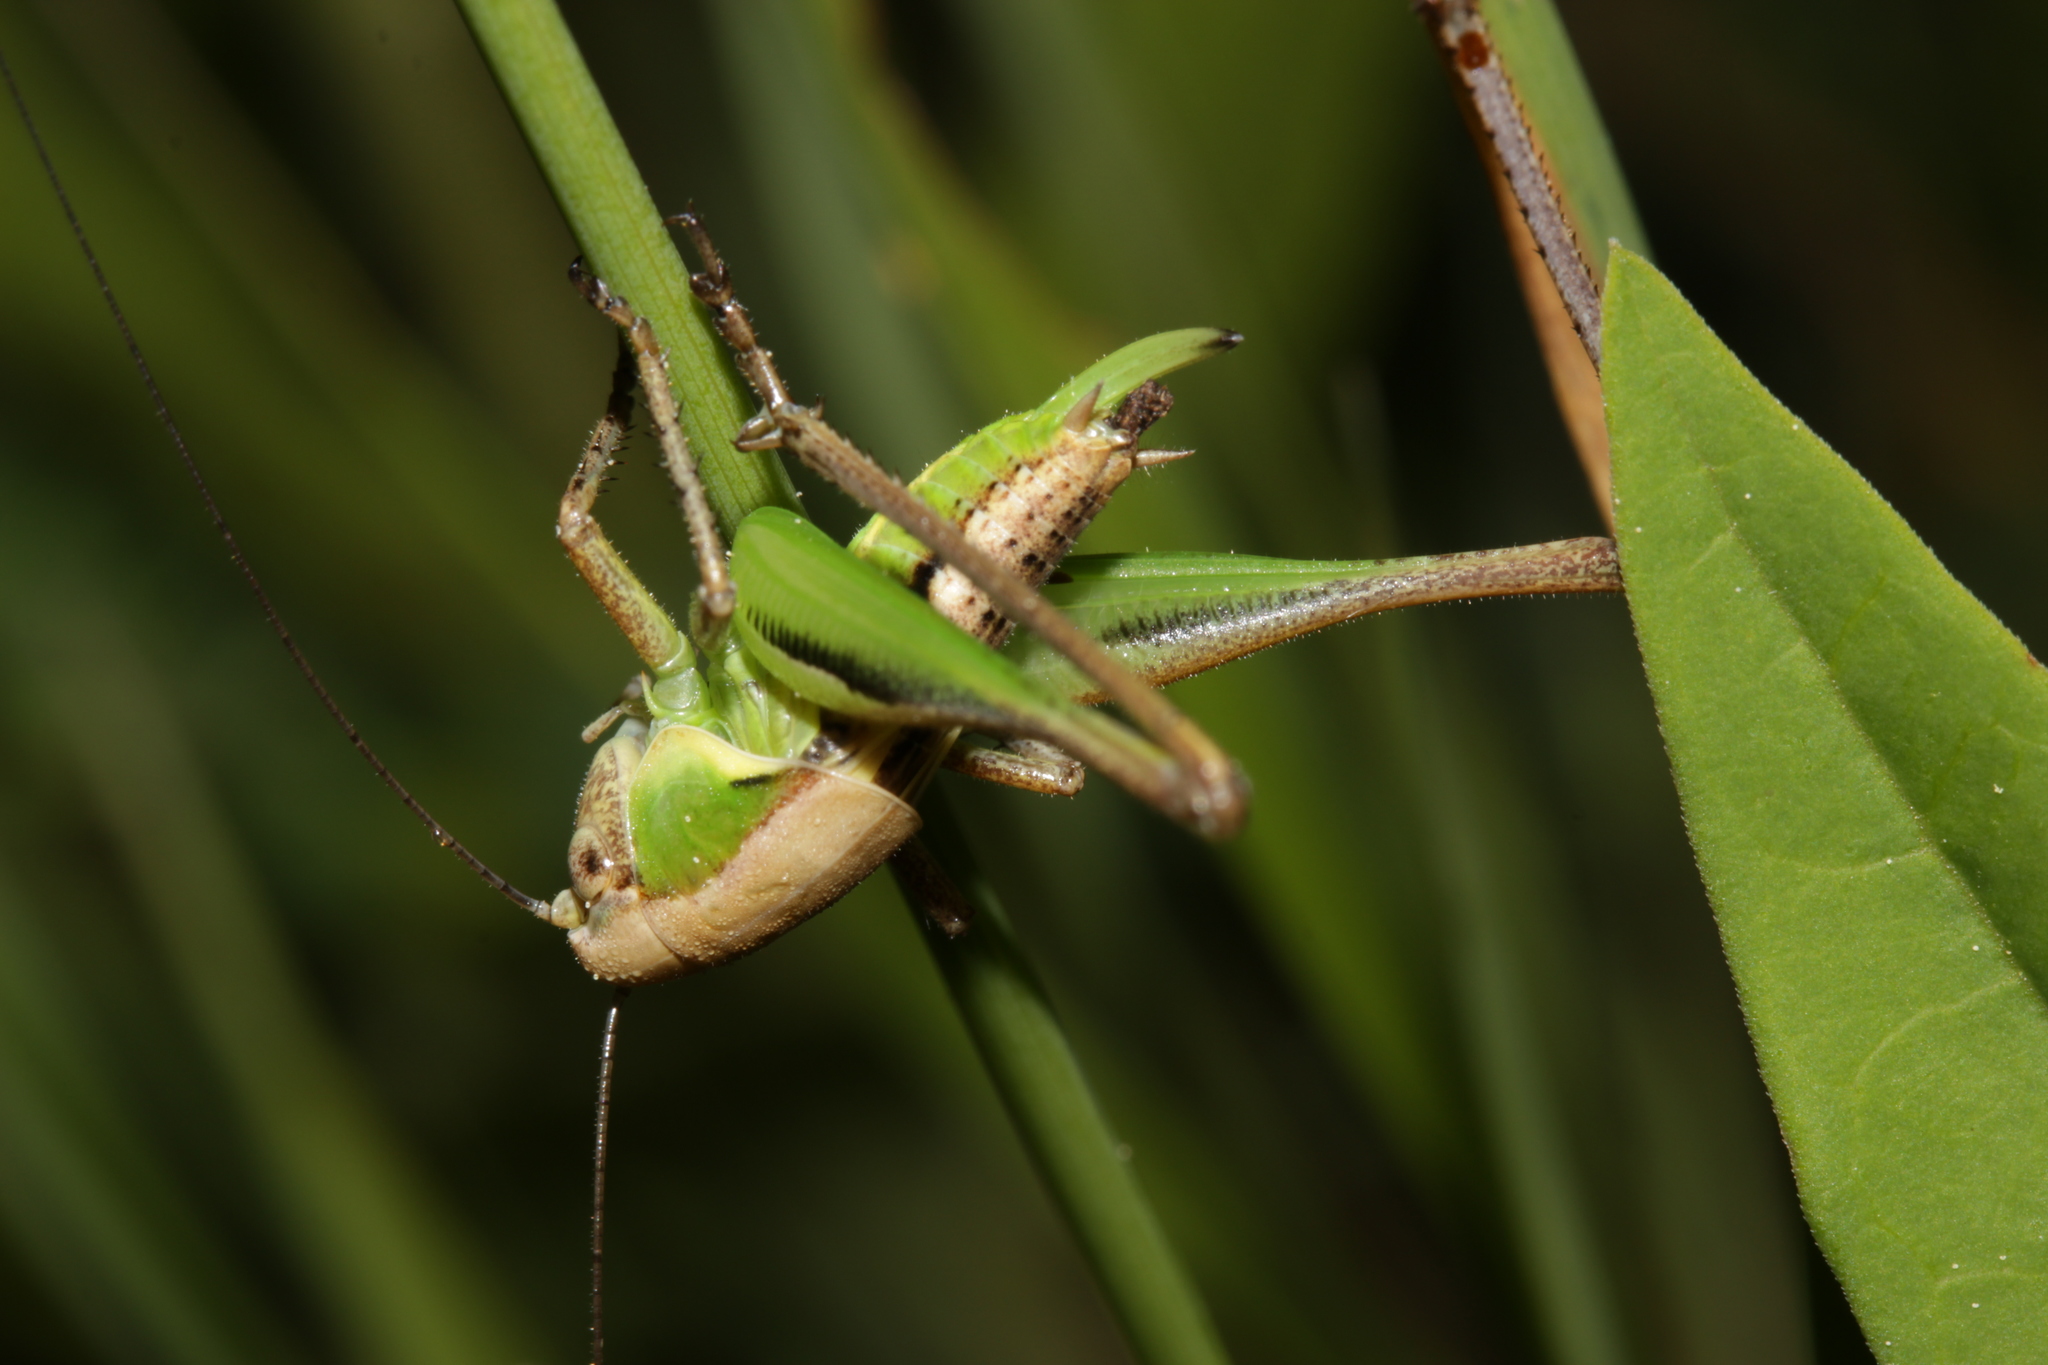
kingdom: Animalia
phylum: Arthropoda
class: Insecta
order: Orthoptera
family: Tettigoniidae
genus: Platycleis
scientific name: Platycleis grisea
